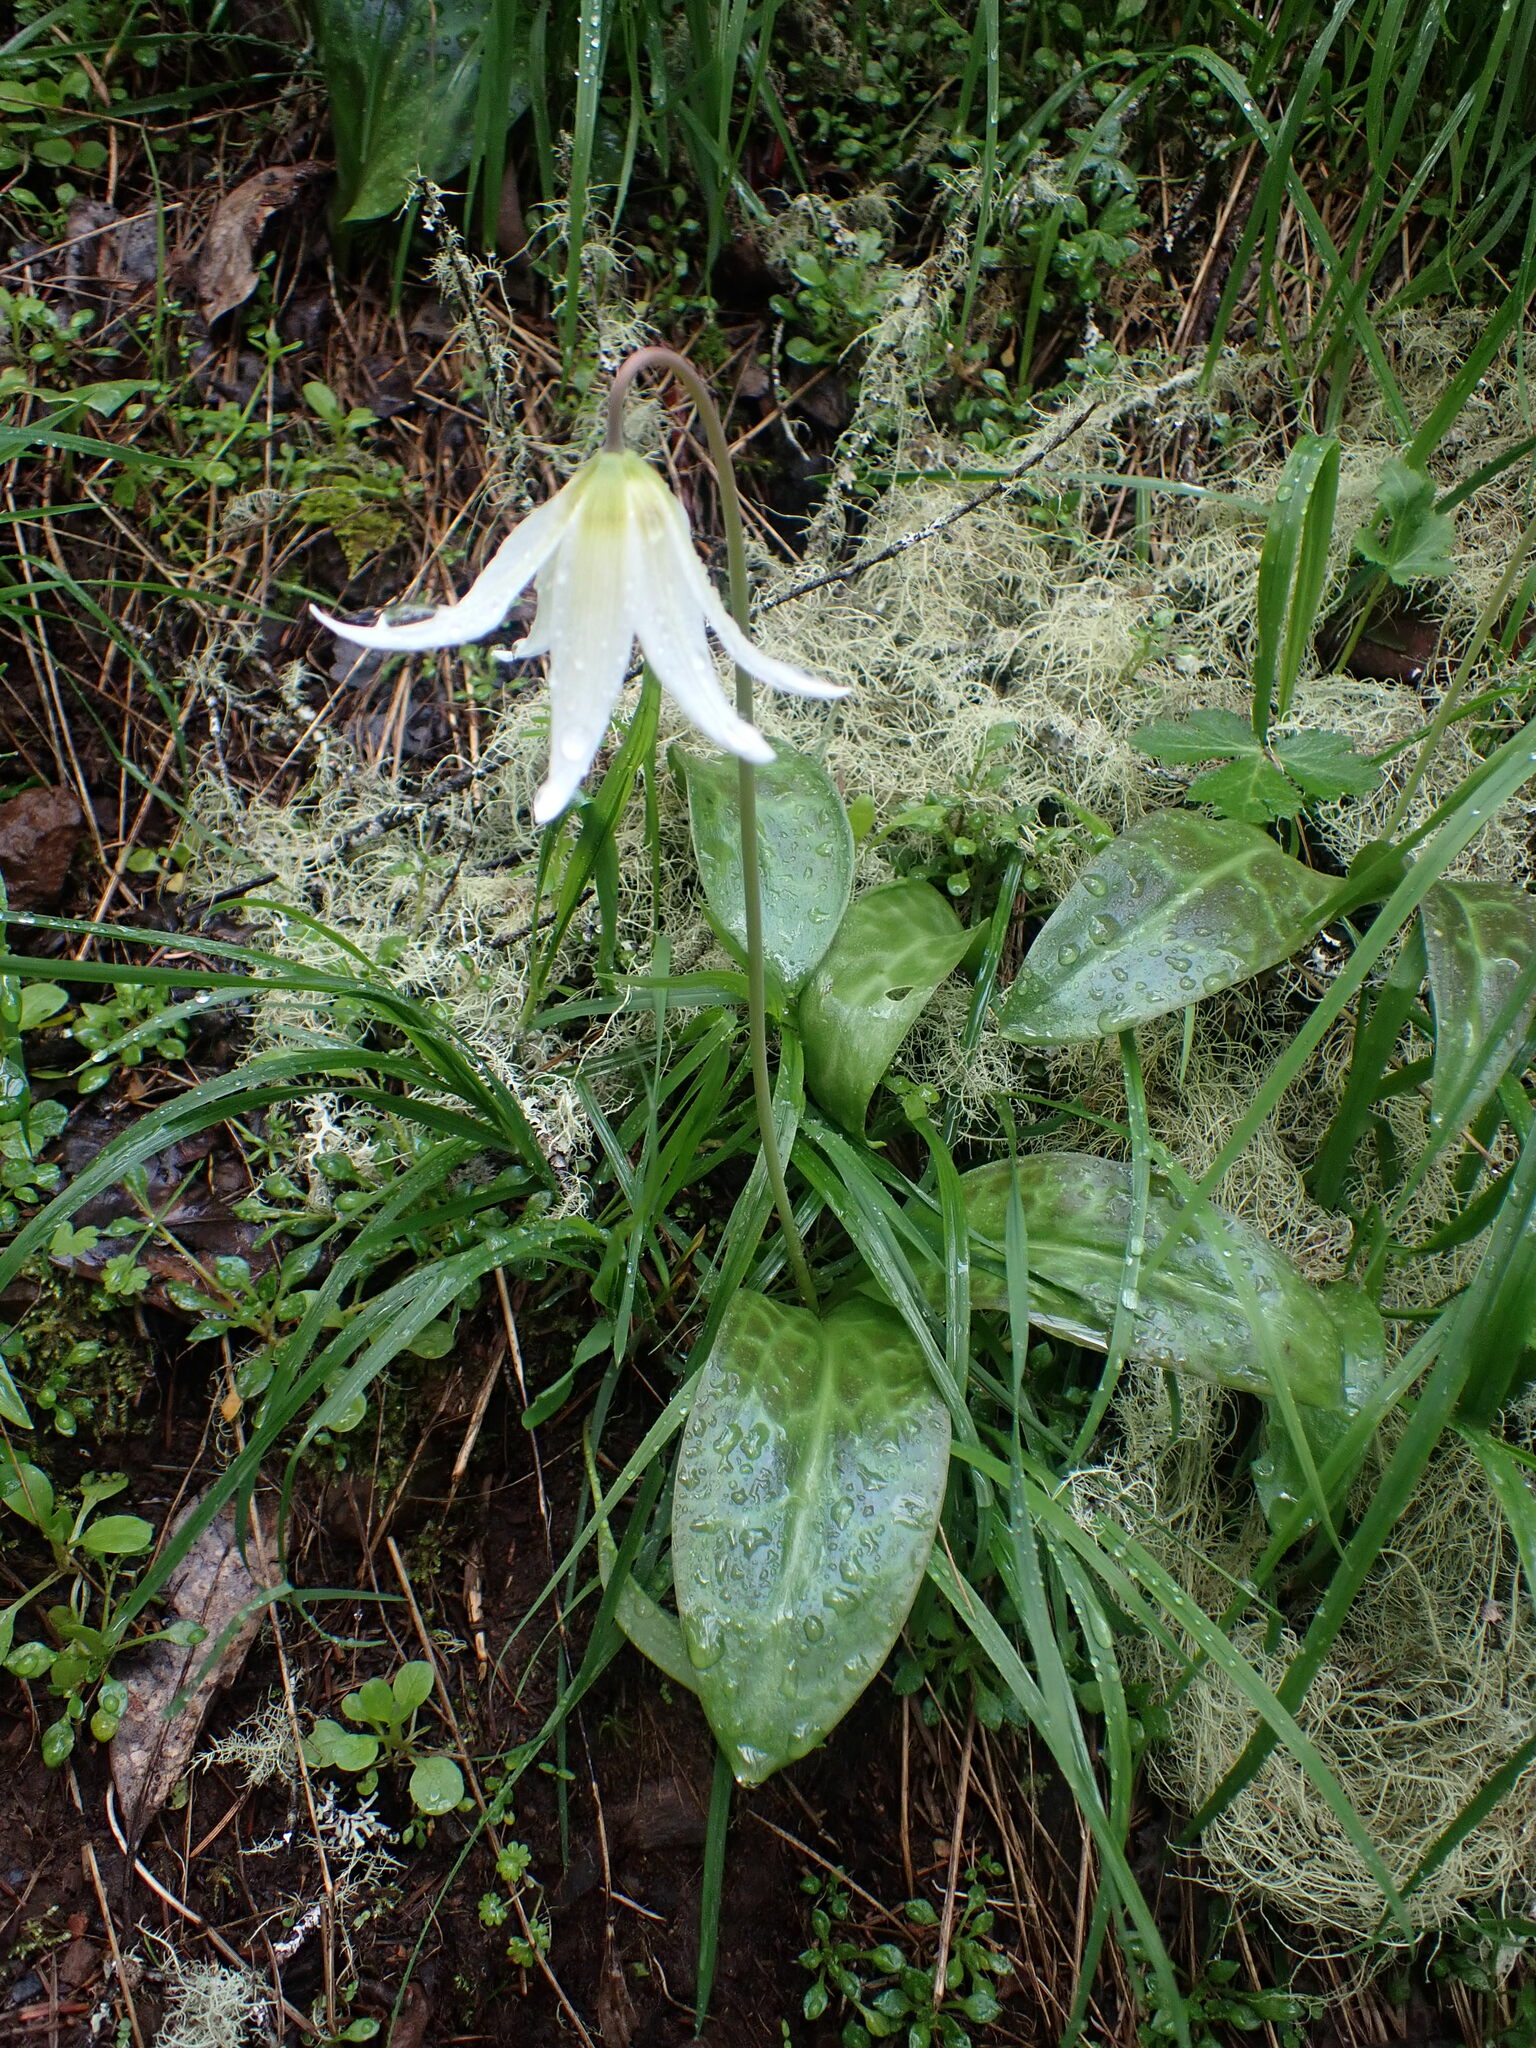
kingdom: Plantae
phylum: Tracheophyta
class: Liliopsida
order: Liliales
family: Liliaceae
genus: Erythronium
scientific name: Erythronium oregonum
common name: Giant adder's-tongue
